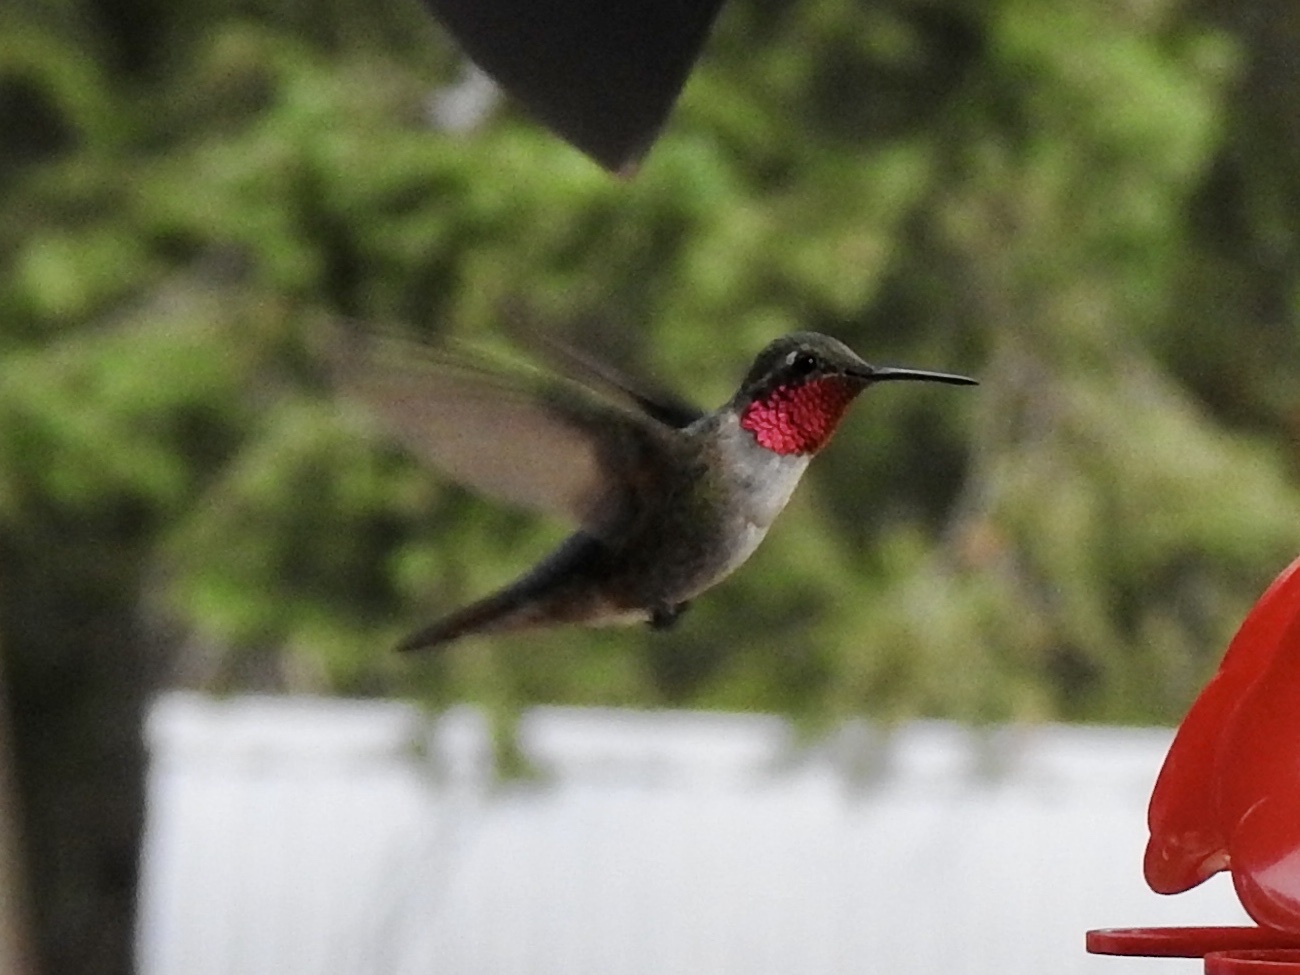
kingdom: Animalia
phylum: Chordata
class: Aves
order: Apodiformes
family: Trochilidae
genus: Selasphorus
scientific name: Selasphorus platycercus
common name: Broad-tailed hummingbird
